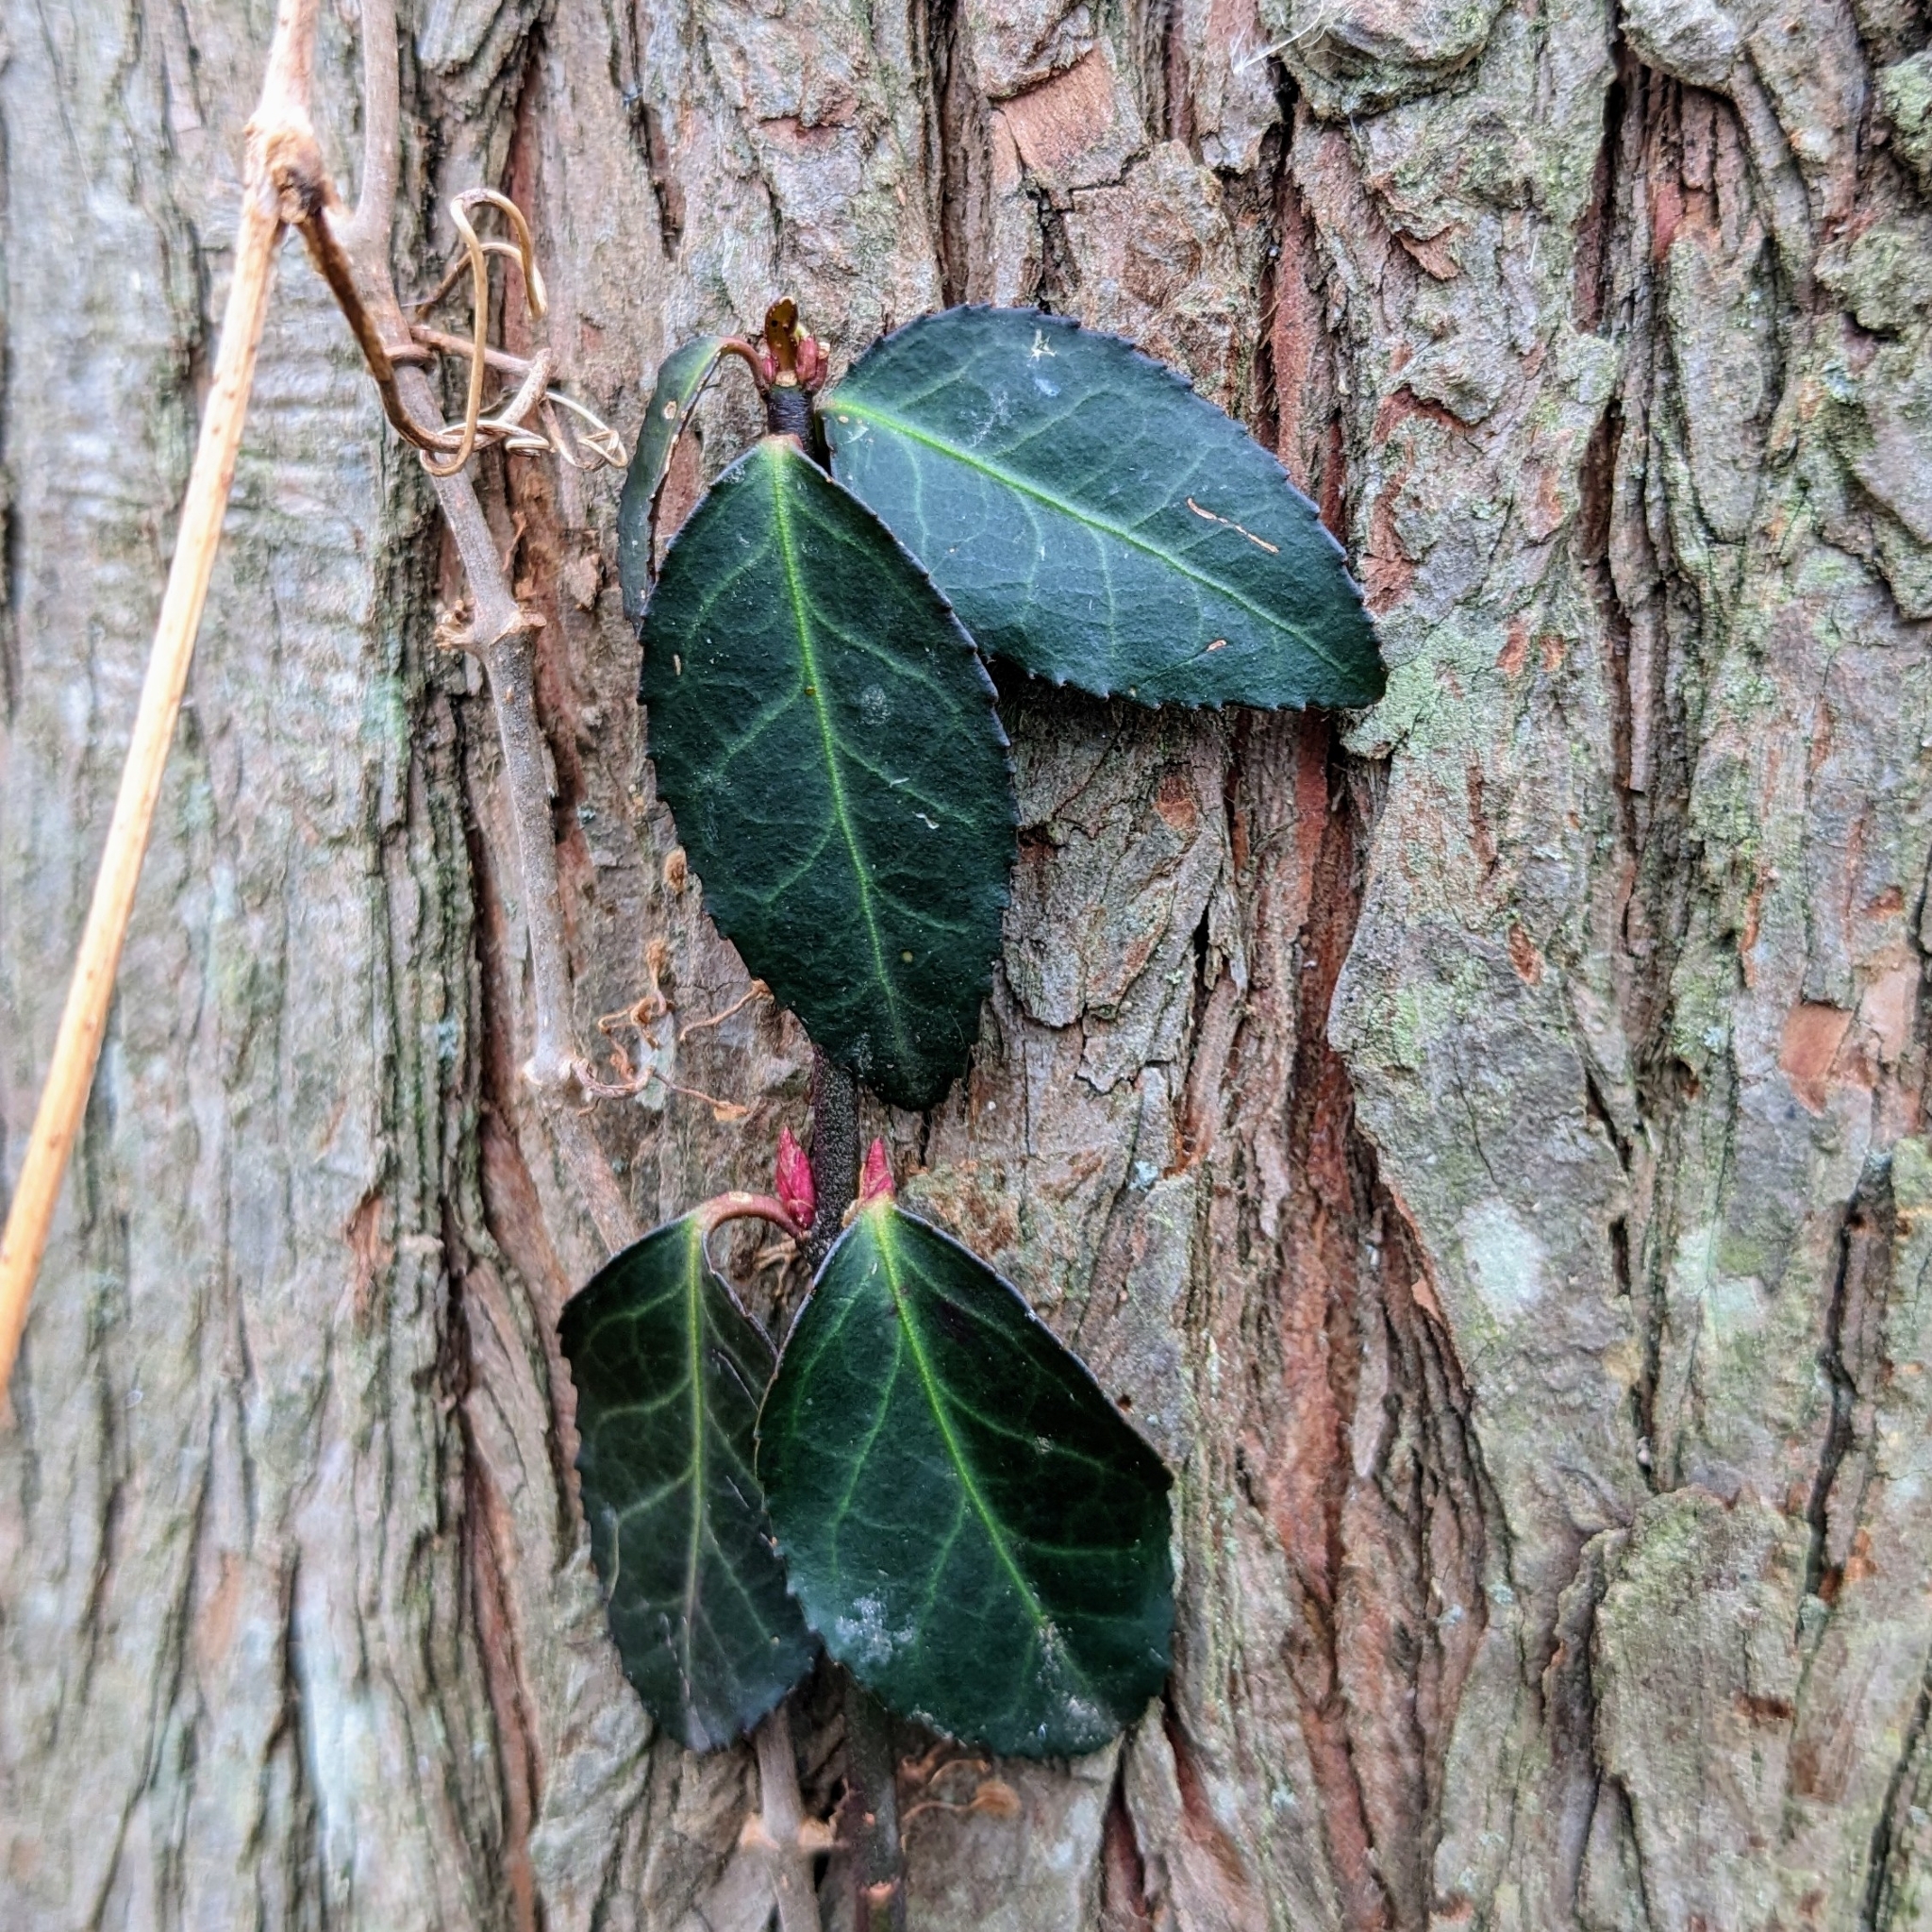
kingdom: Plantae
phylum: Tracheophyta
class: Magnoliopsida
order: Celastrales
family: Celastraceae
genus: Euonymus
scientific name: Euonymus fortunei
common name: Climbing euonymus
